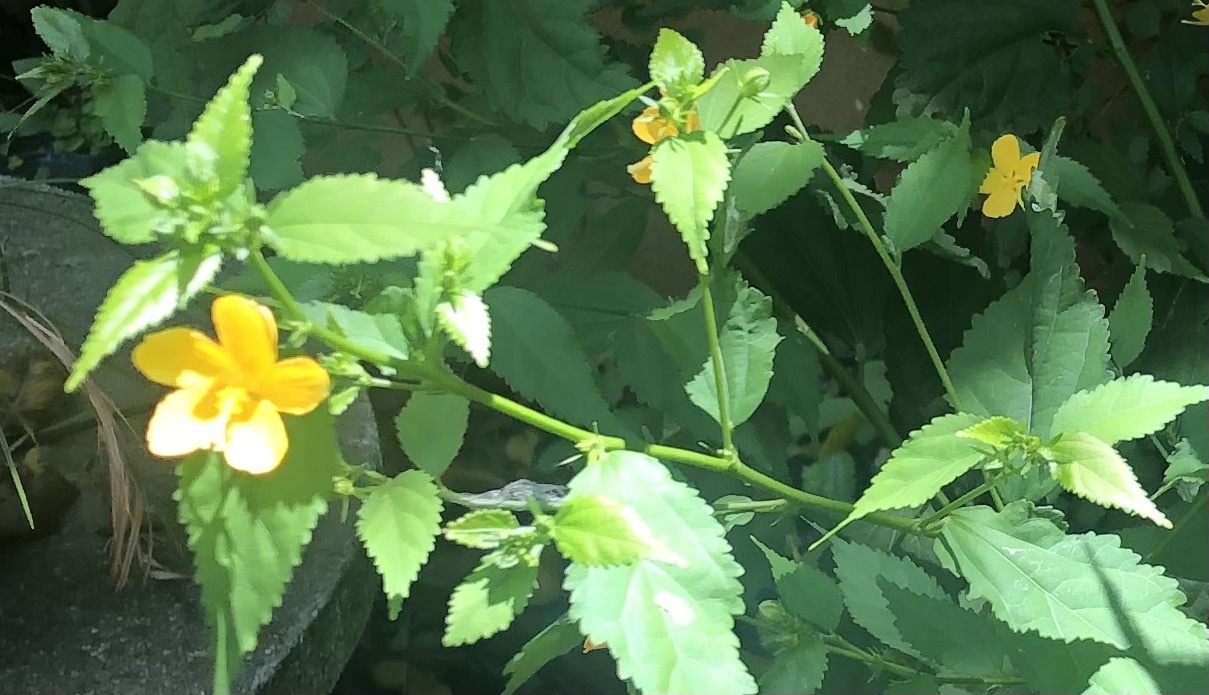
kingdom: Plantae
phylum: Tracheophyta
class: Magnoliopsida
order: Malvales
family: Malvaceae
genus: Pavonia
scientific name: Pavonia sepium
